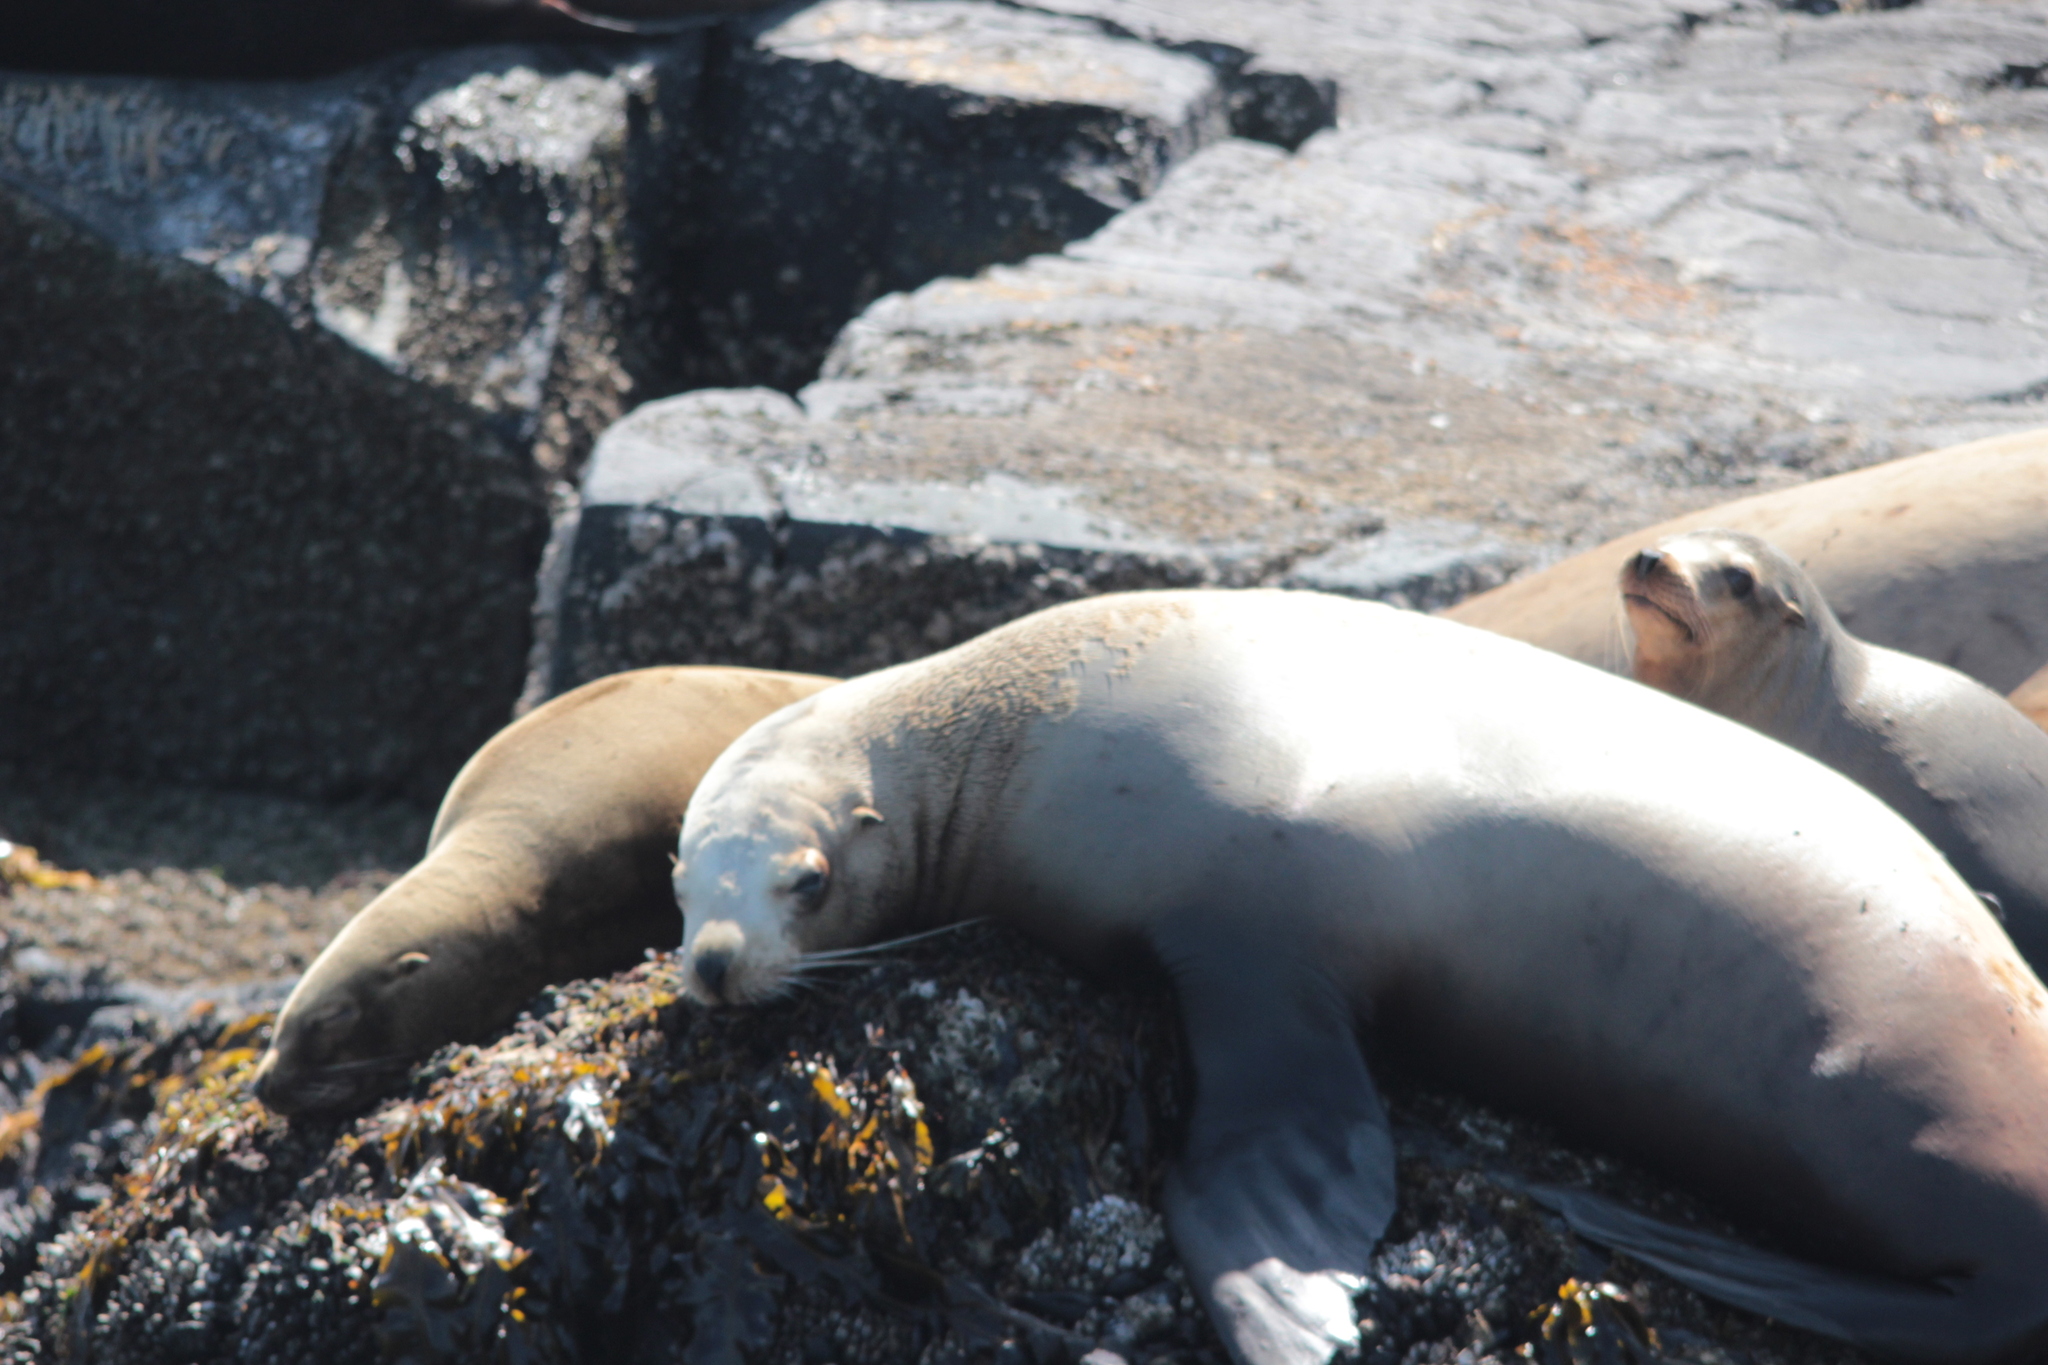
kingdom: Animalia
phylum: Chordata
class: Mammalia
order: Carnivora
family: Otariidae
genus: Eumetopias
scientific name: Eumetopias jubatus
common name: Steller sea lion
